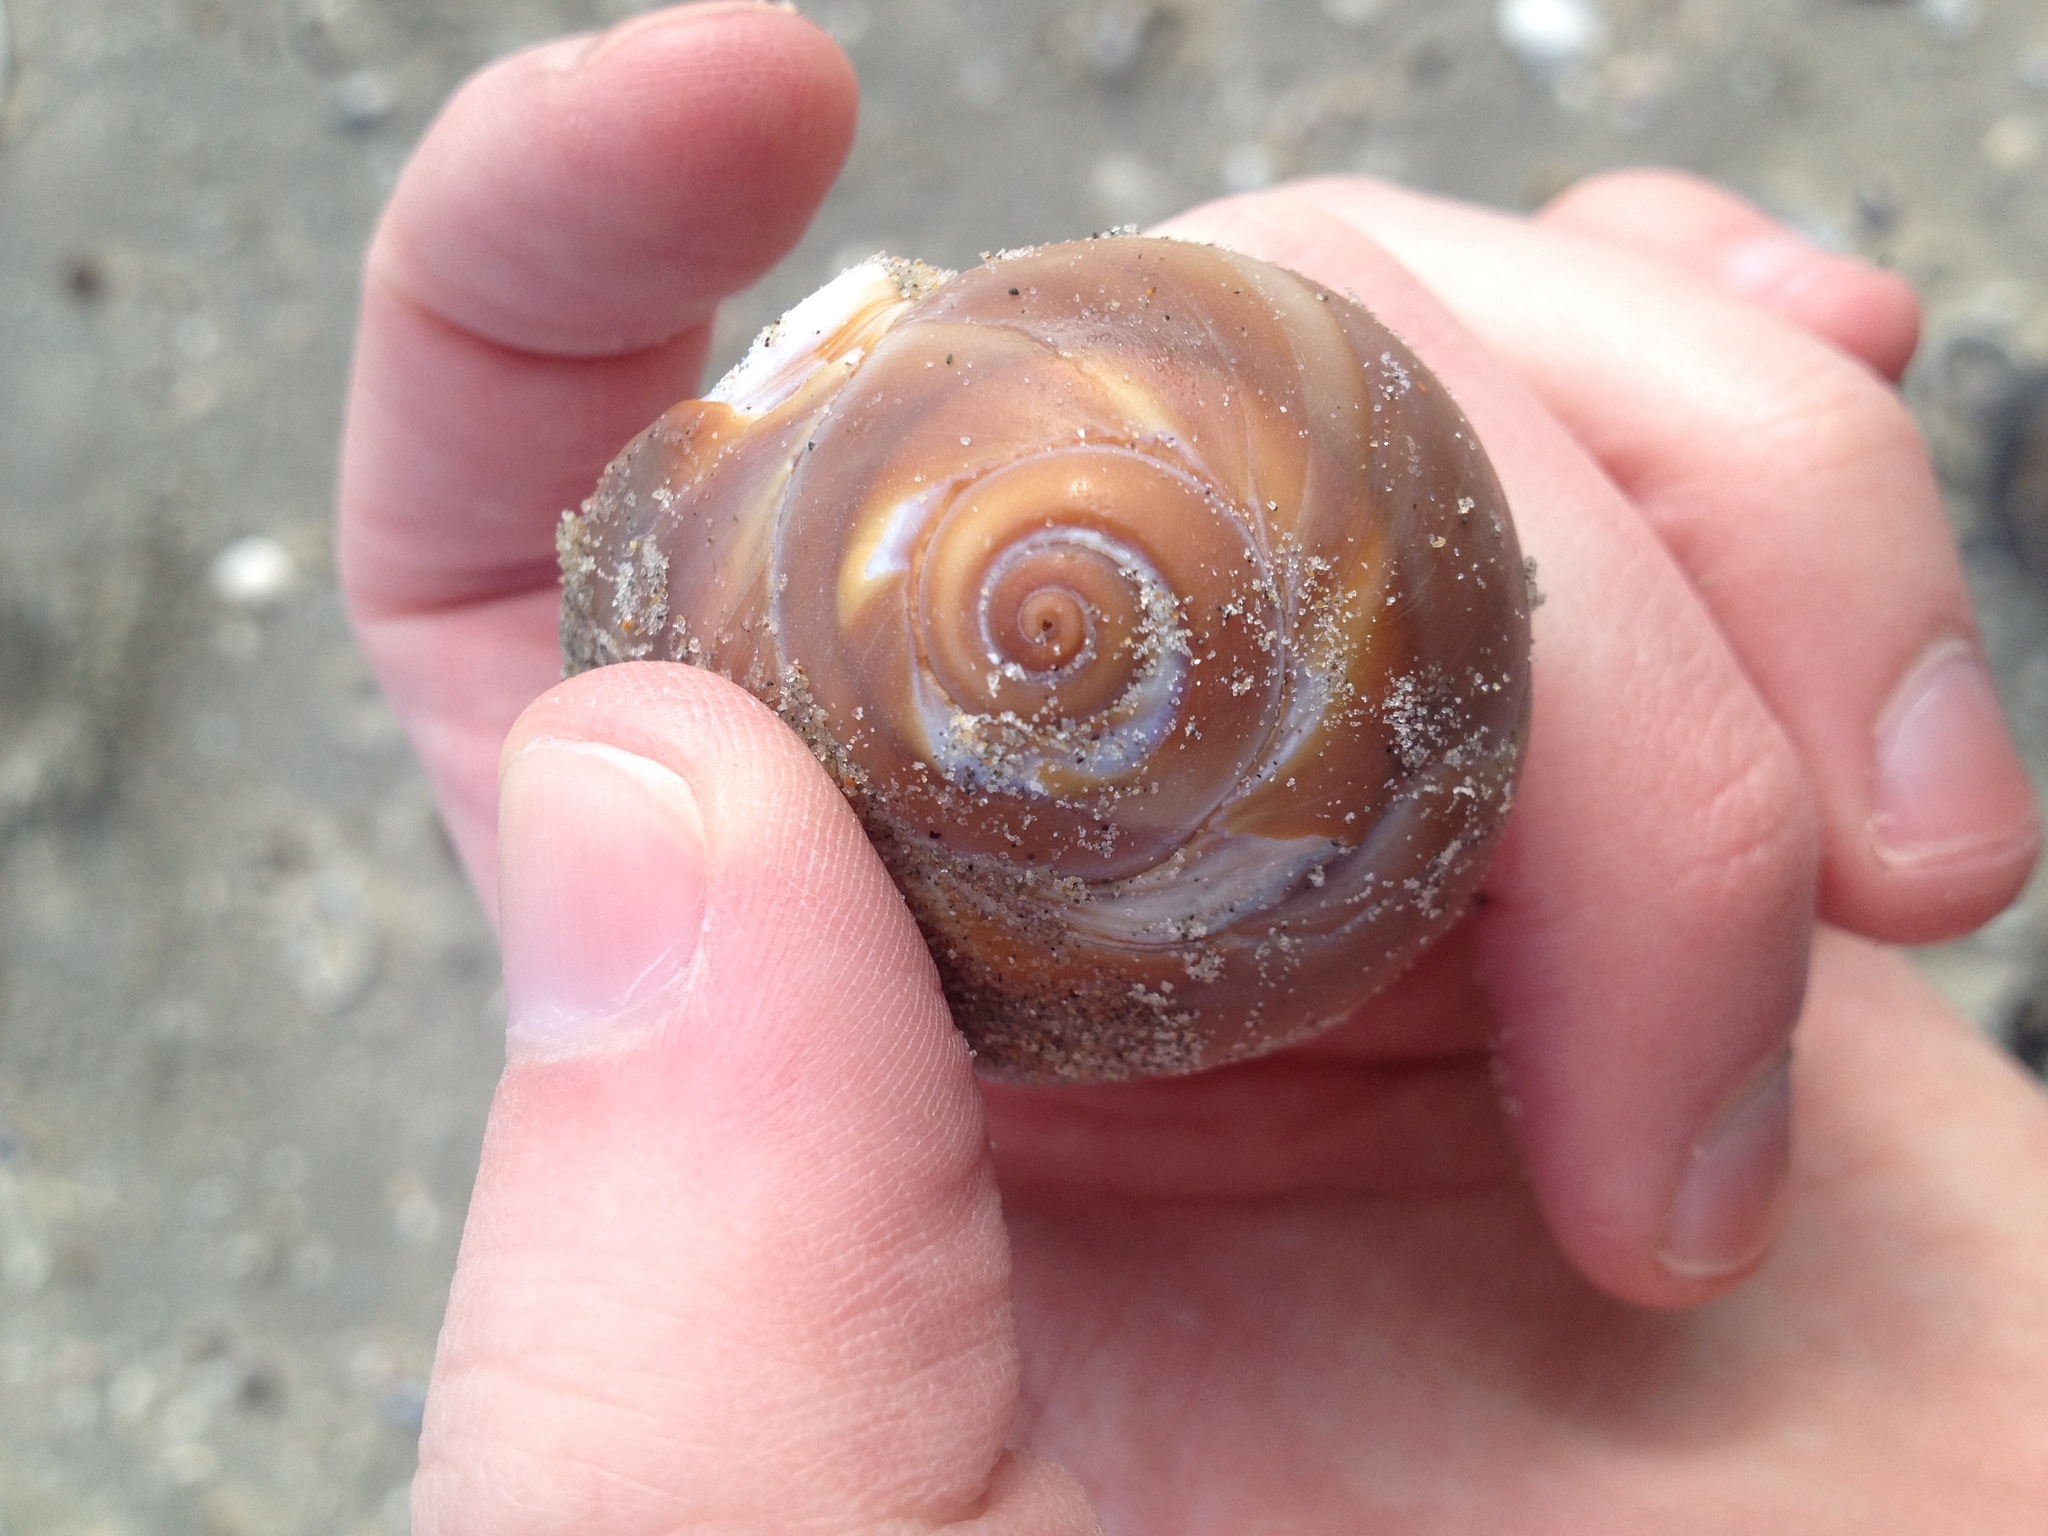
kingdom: Animalia
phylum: Mollusca
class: Gastropoda
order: Littorinimorpha
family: Naticidae
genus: Neverita
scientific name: Neverita duplicata
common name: Lobed moonsnail
